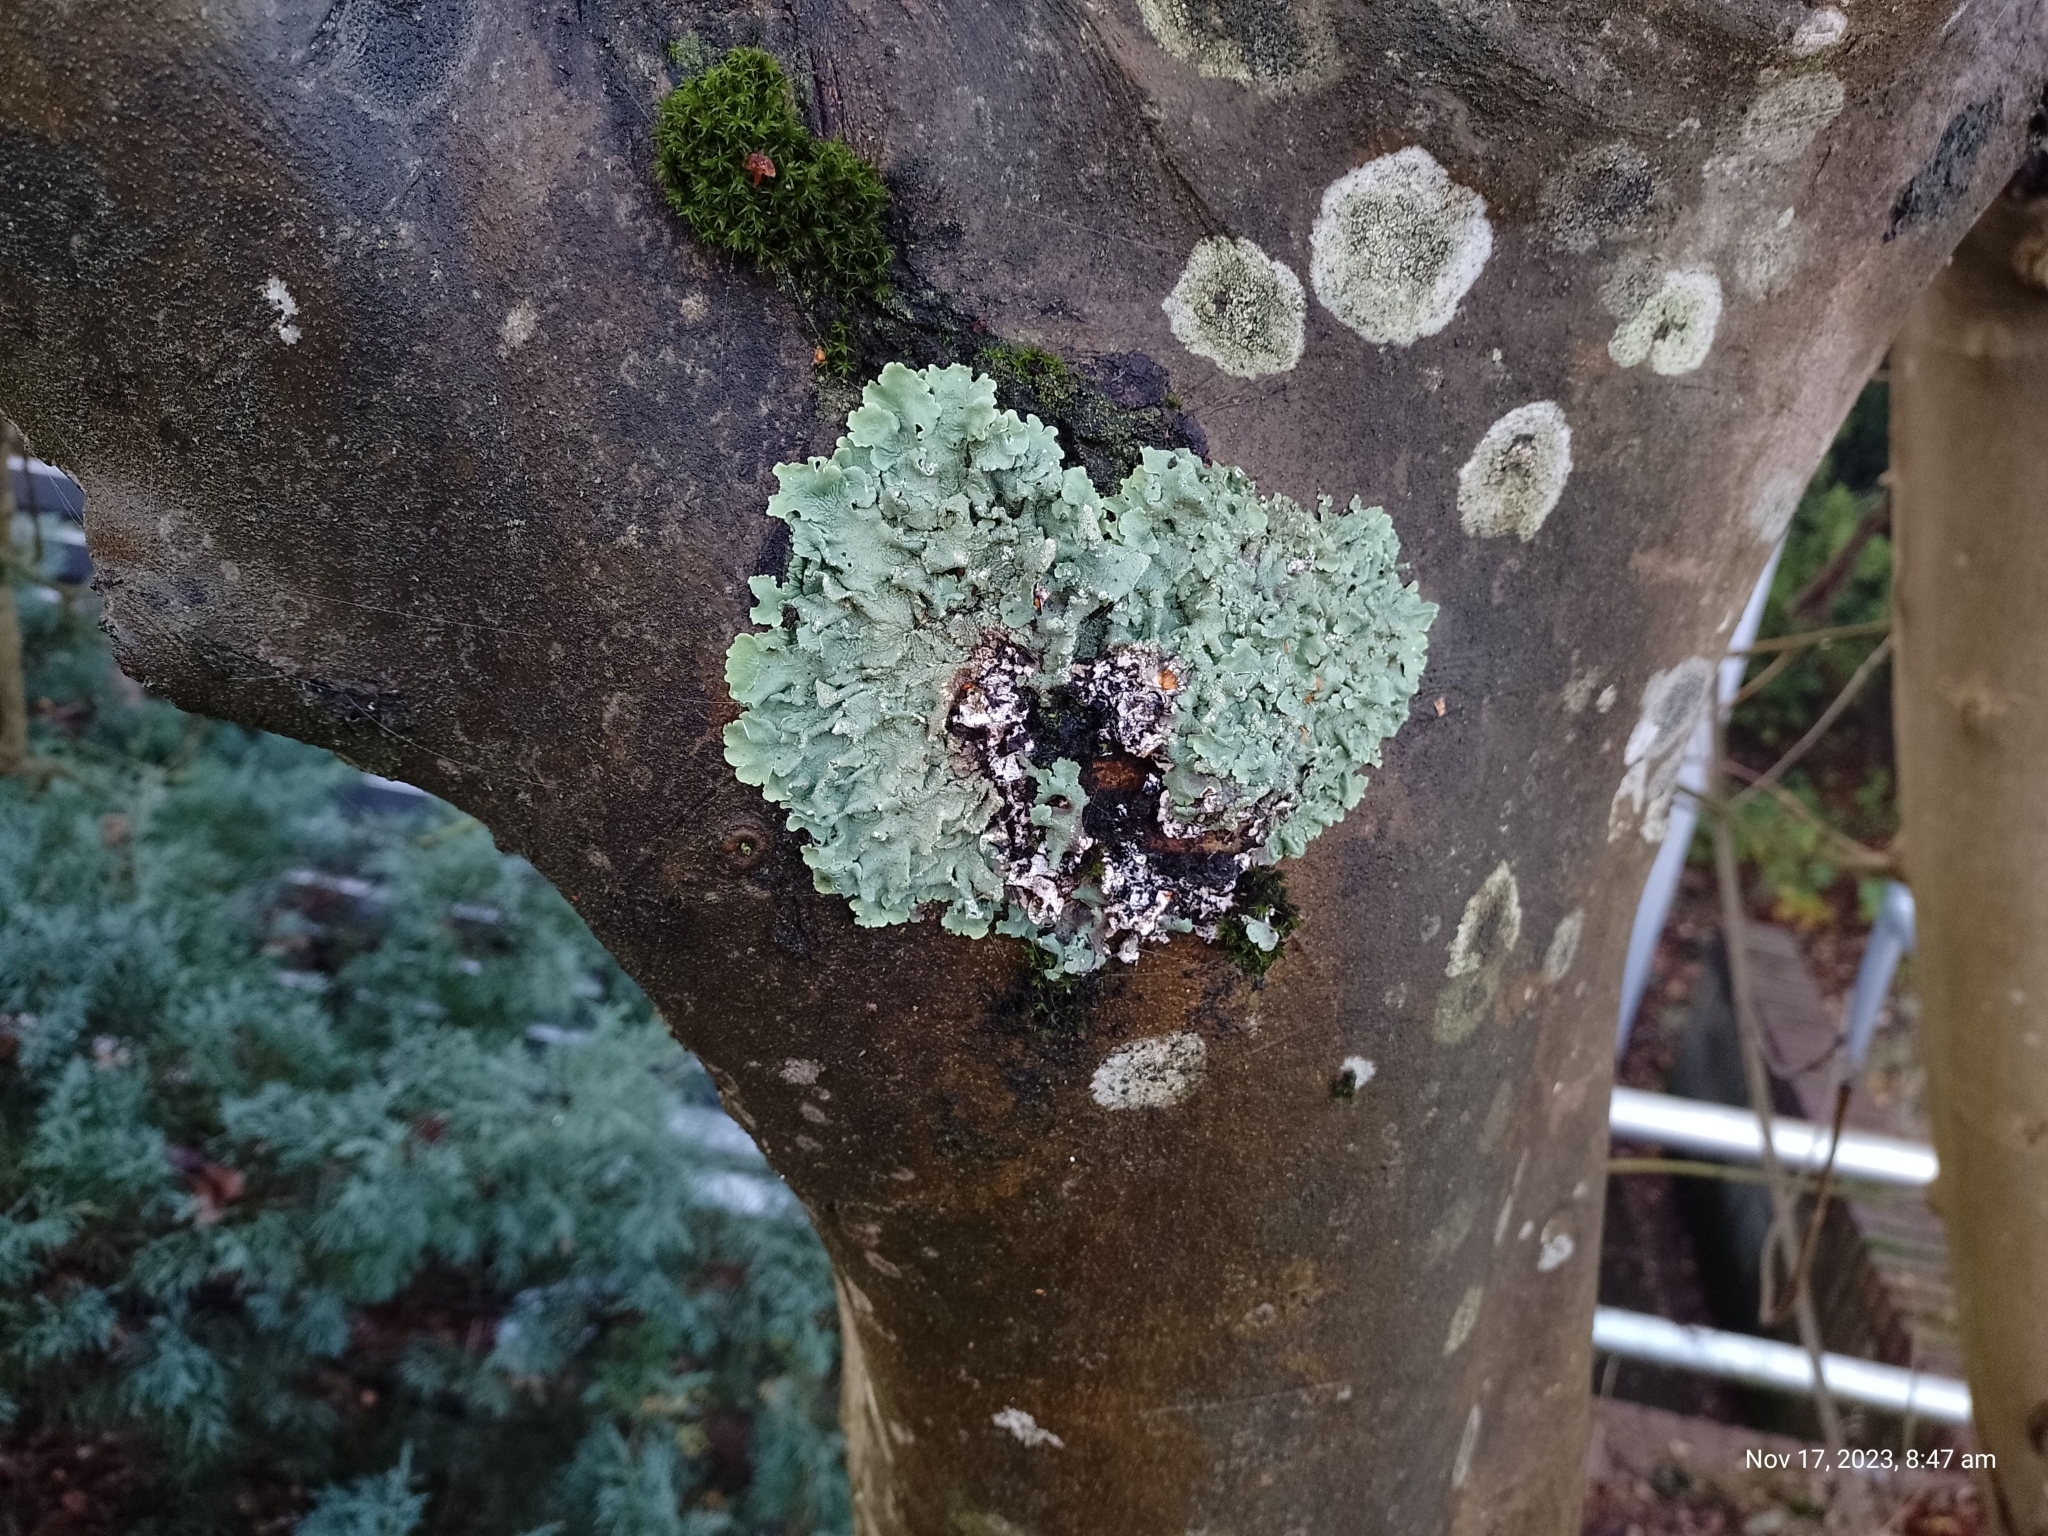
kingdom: Fungi
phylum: Ascomycota
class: Lecanoromycetes
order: Lecanorales
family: Parmeliaceae
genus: Flavoparmelia
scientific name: Flavoparmelia caperata
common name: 40-mile per hour lichen
